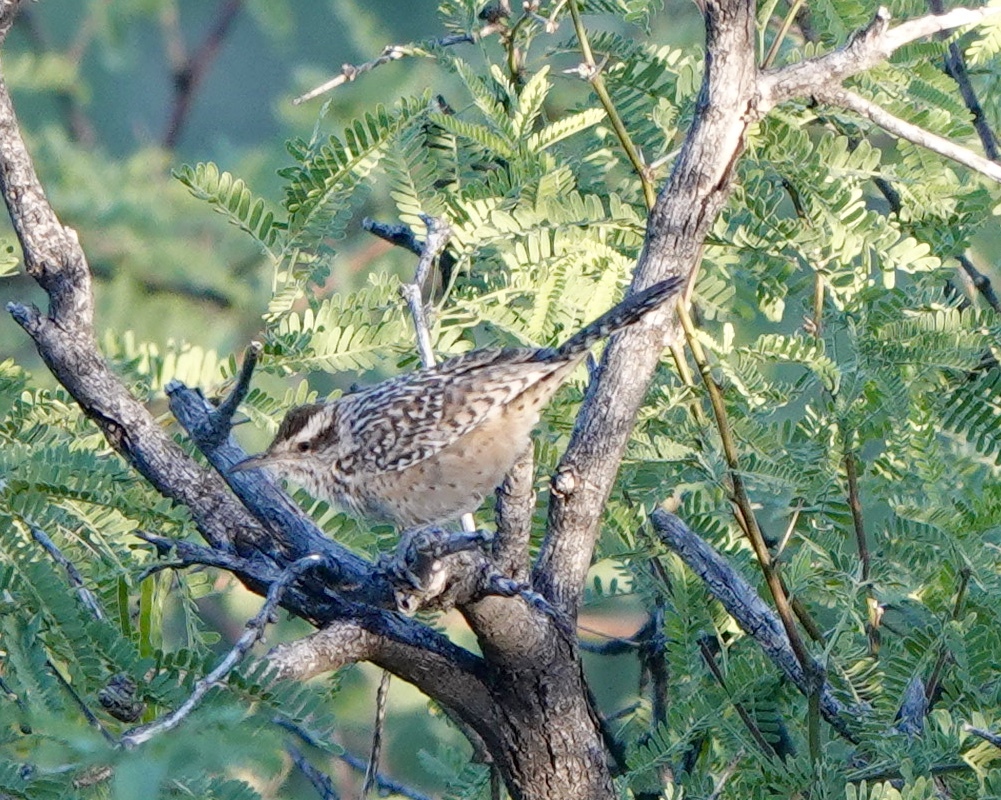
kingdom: Animalia
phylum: Chordata
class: Aves
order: Passeriformes
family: Troglodytidae
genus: Campylorhynchus
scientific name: Campylorhynchus brunneicapillus
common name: Cactus wren
